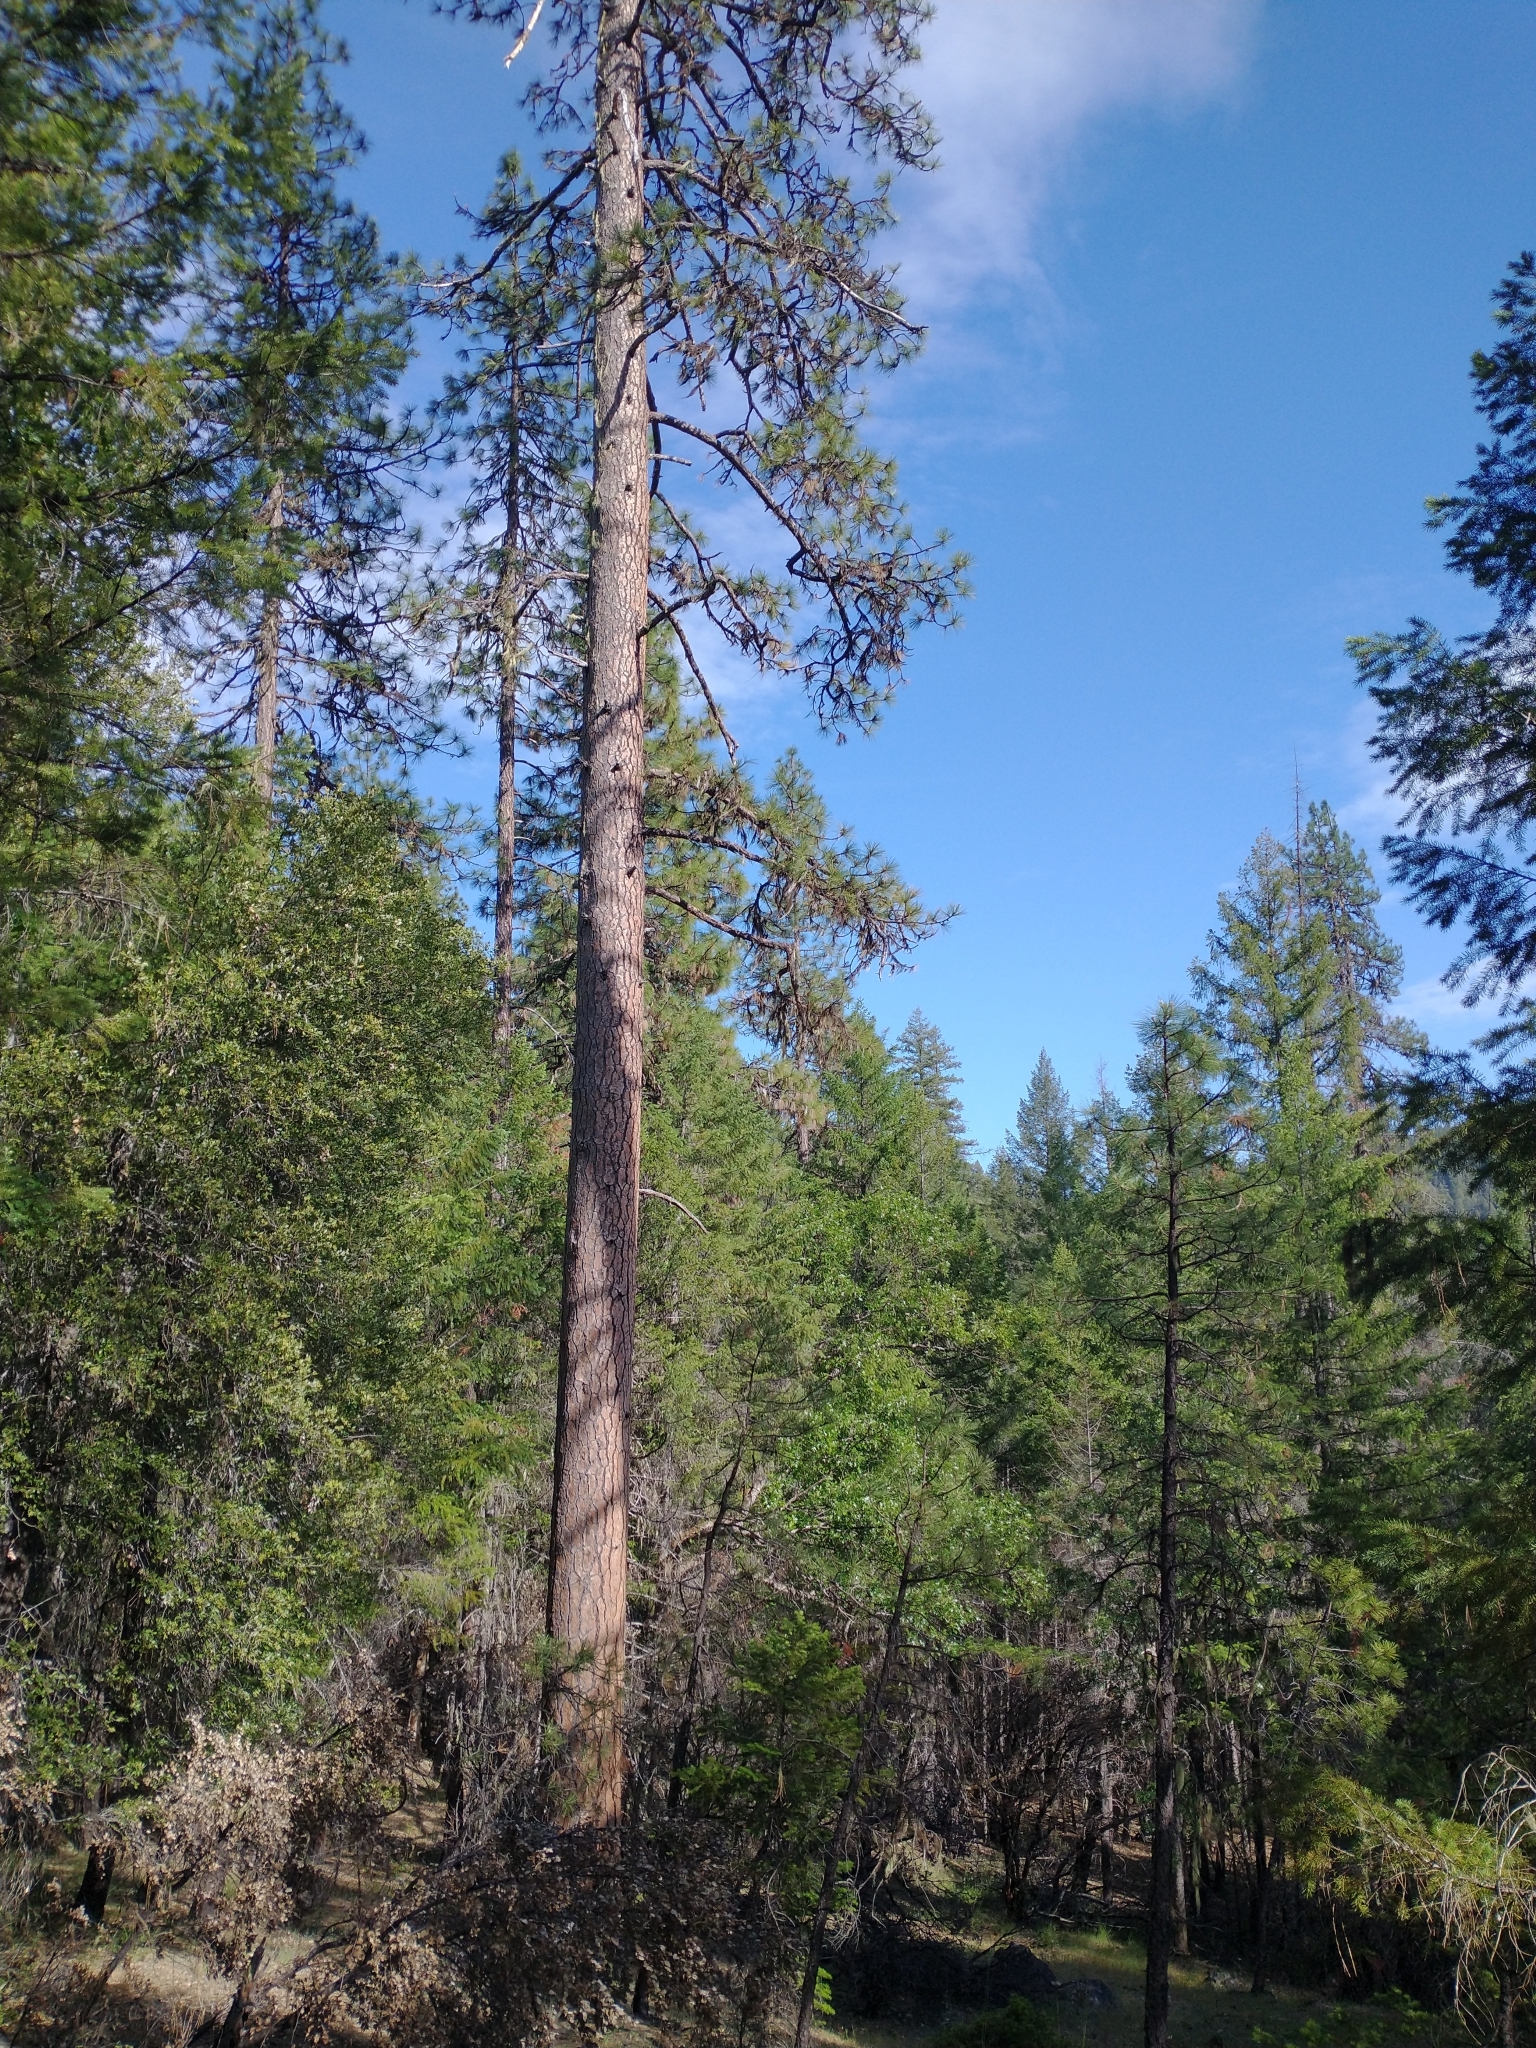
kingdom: Plantae
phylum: Tracheophyta
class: Pinopsida
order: Pinales
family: Pinaceae
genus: Pinus
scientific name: Pinus ponderosa
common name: Western yellow-pine
